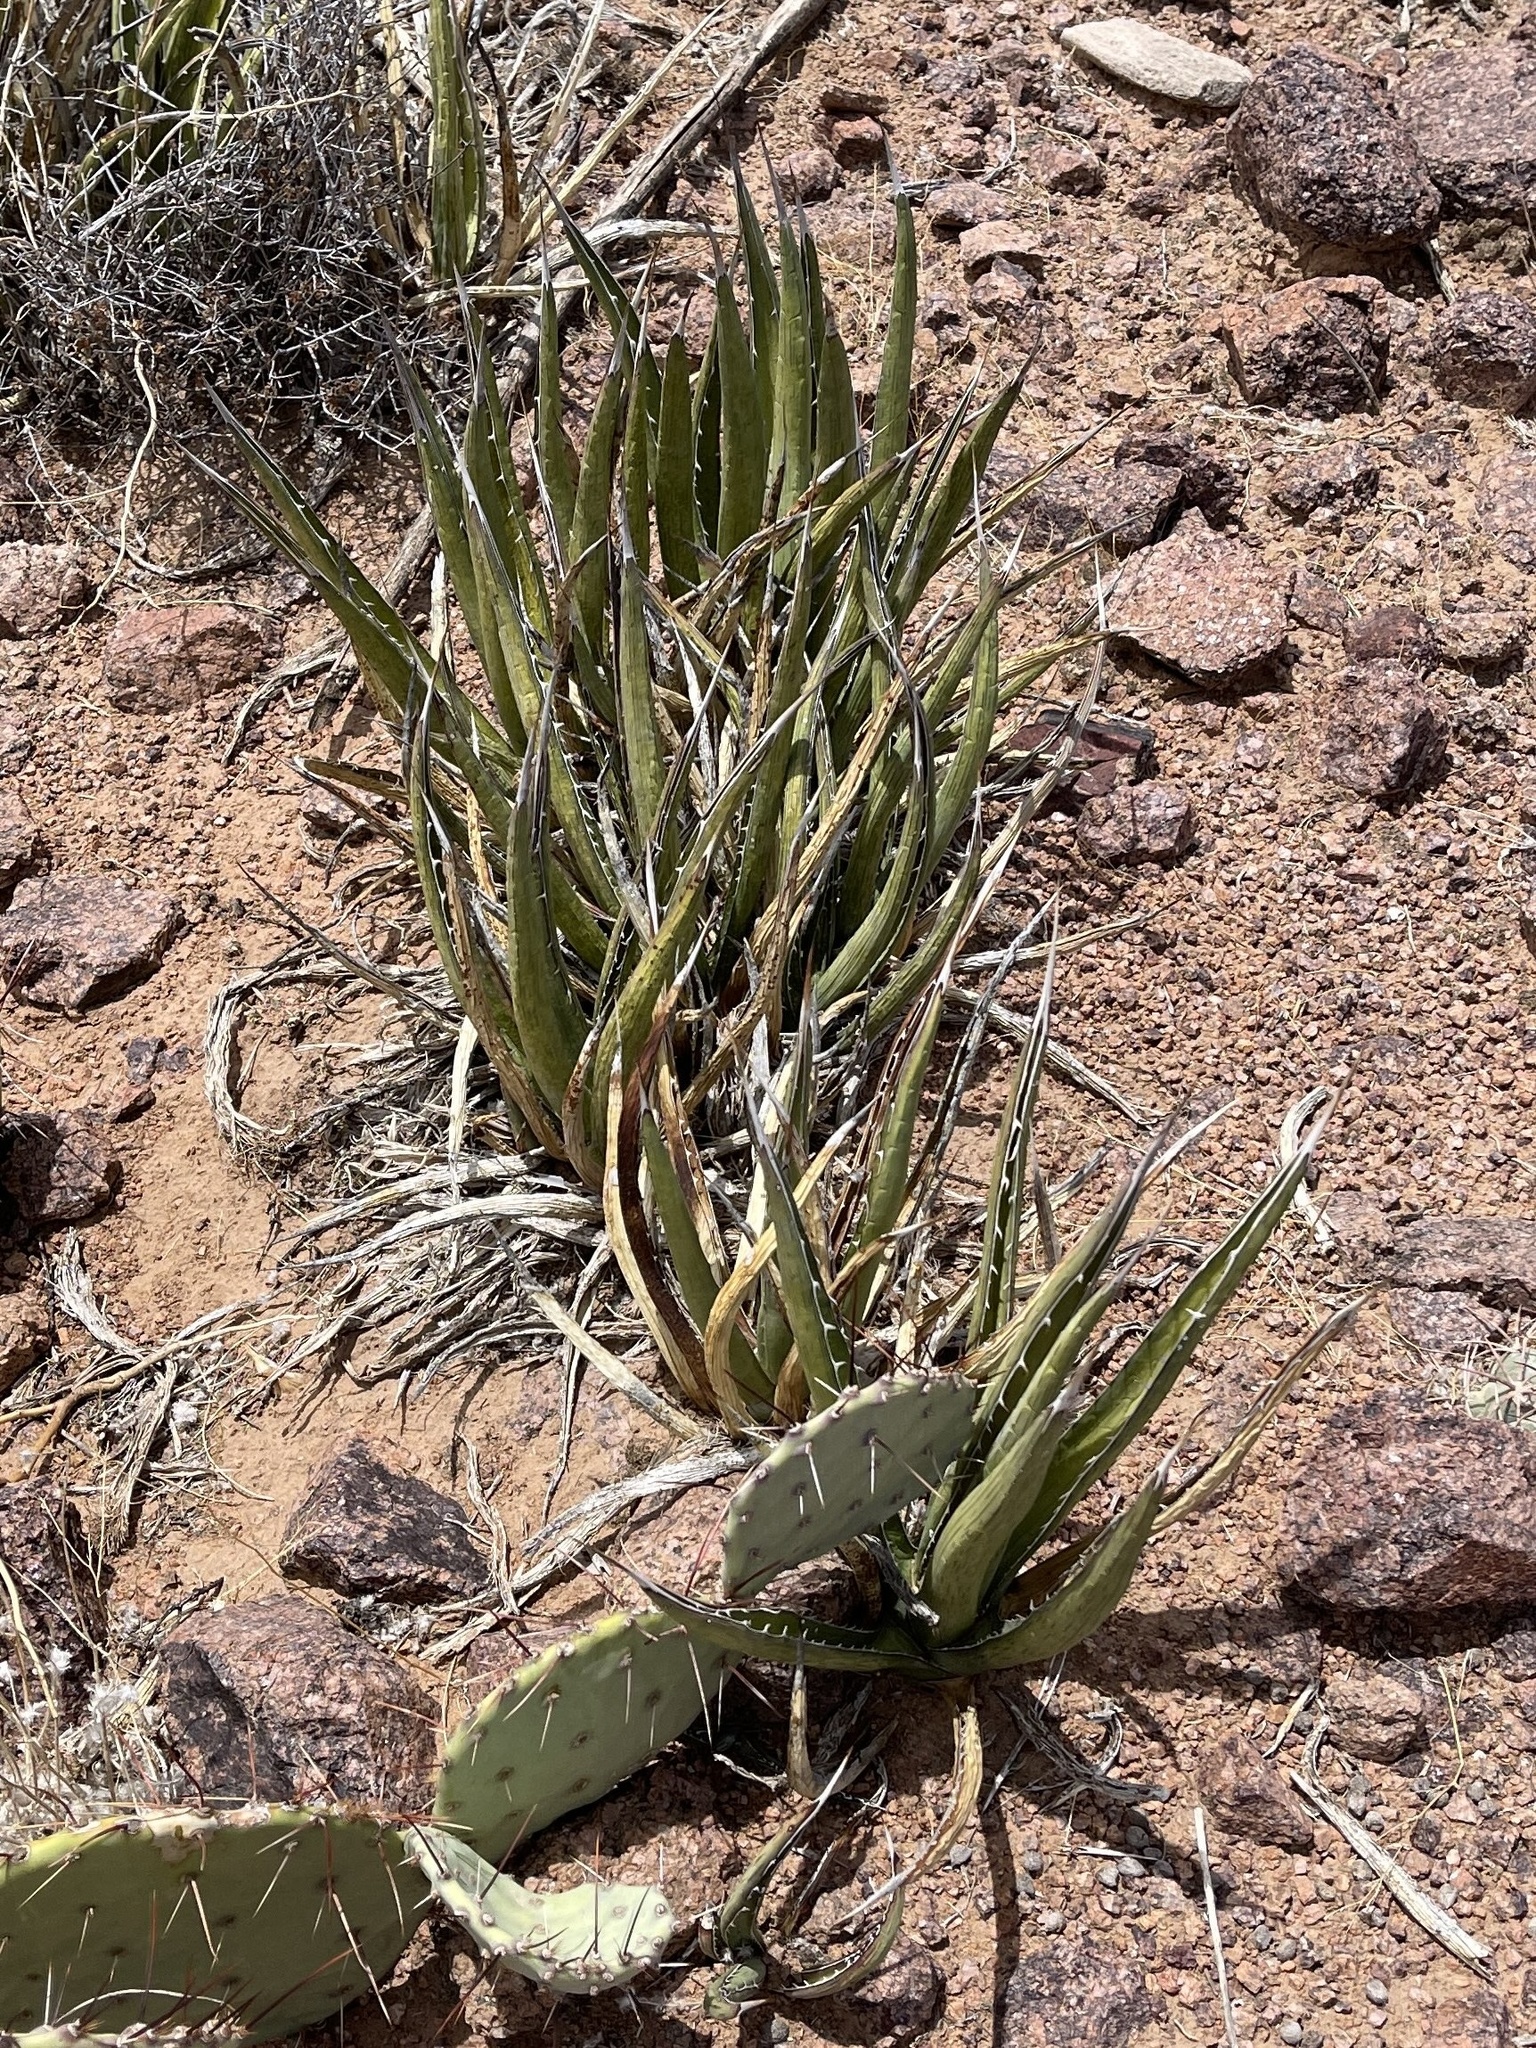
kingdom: Plantae
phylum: Tracheophyta
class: Liliopsida
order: Asparagales
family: Asparagaceae
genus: Agave
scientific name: Agave lechuguilla
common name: Lecheguilla agave
